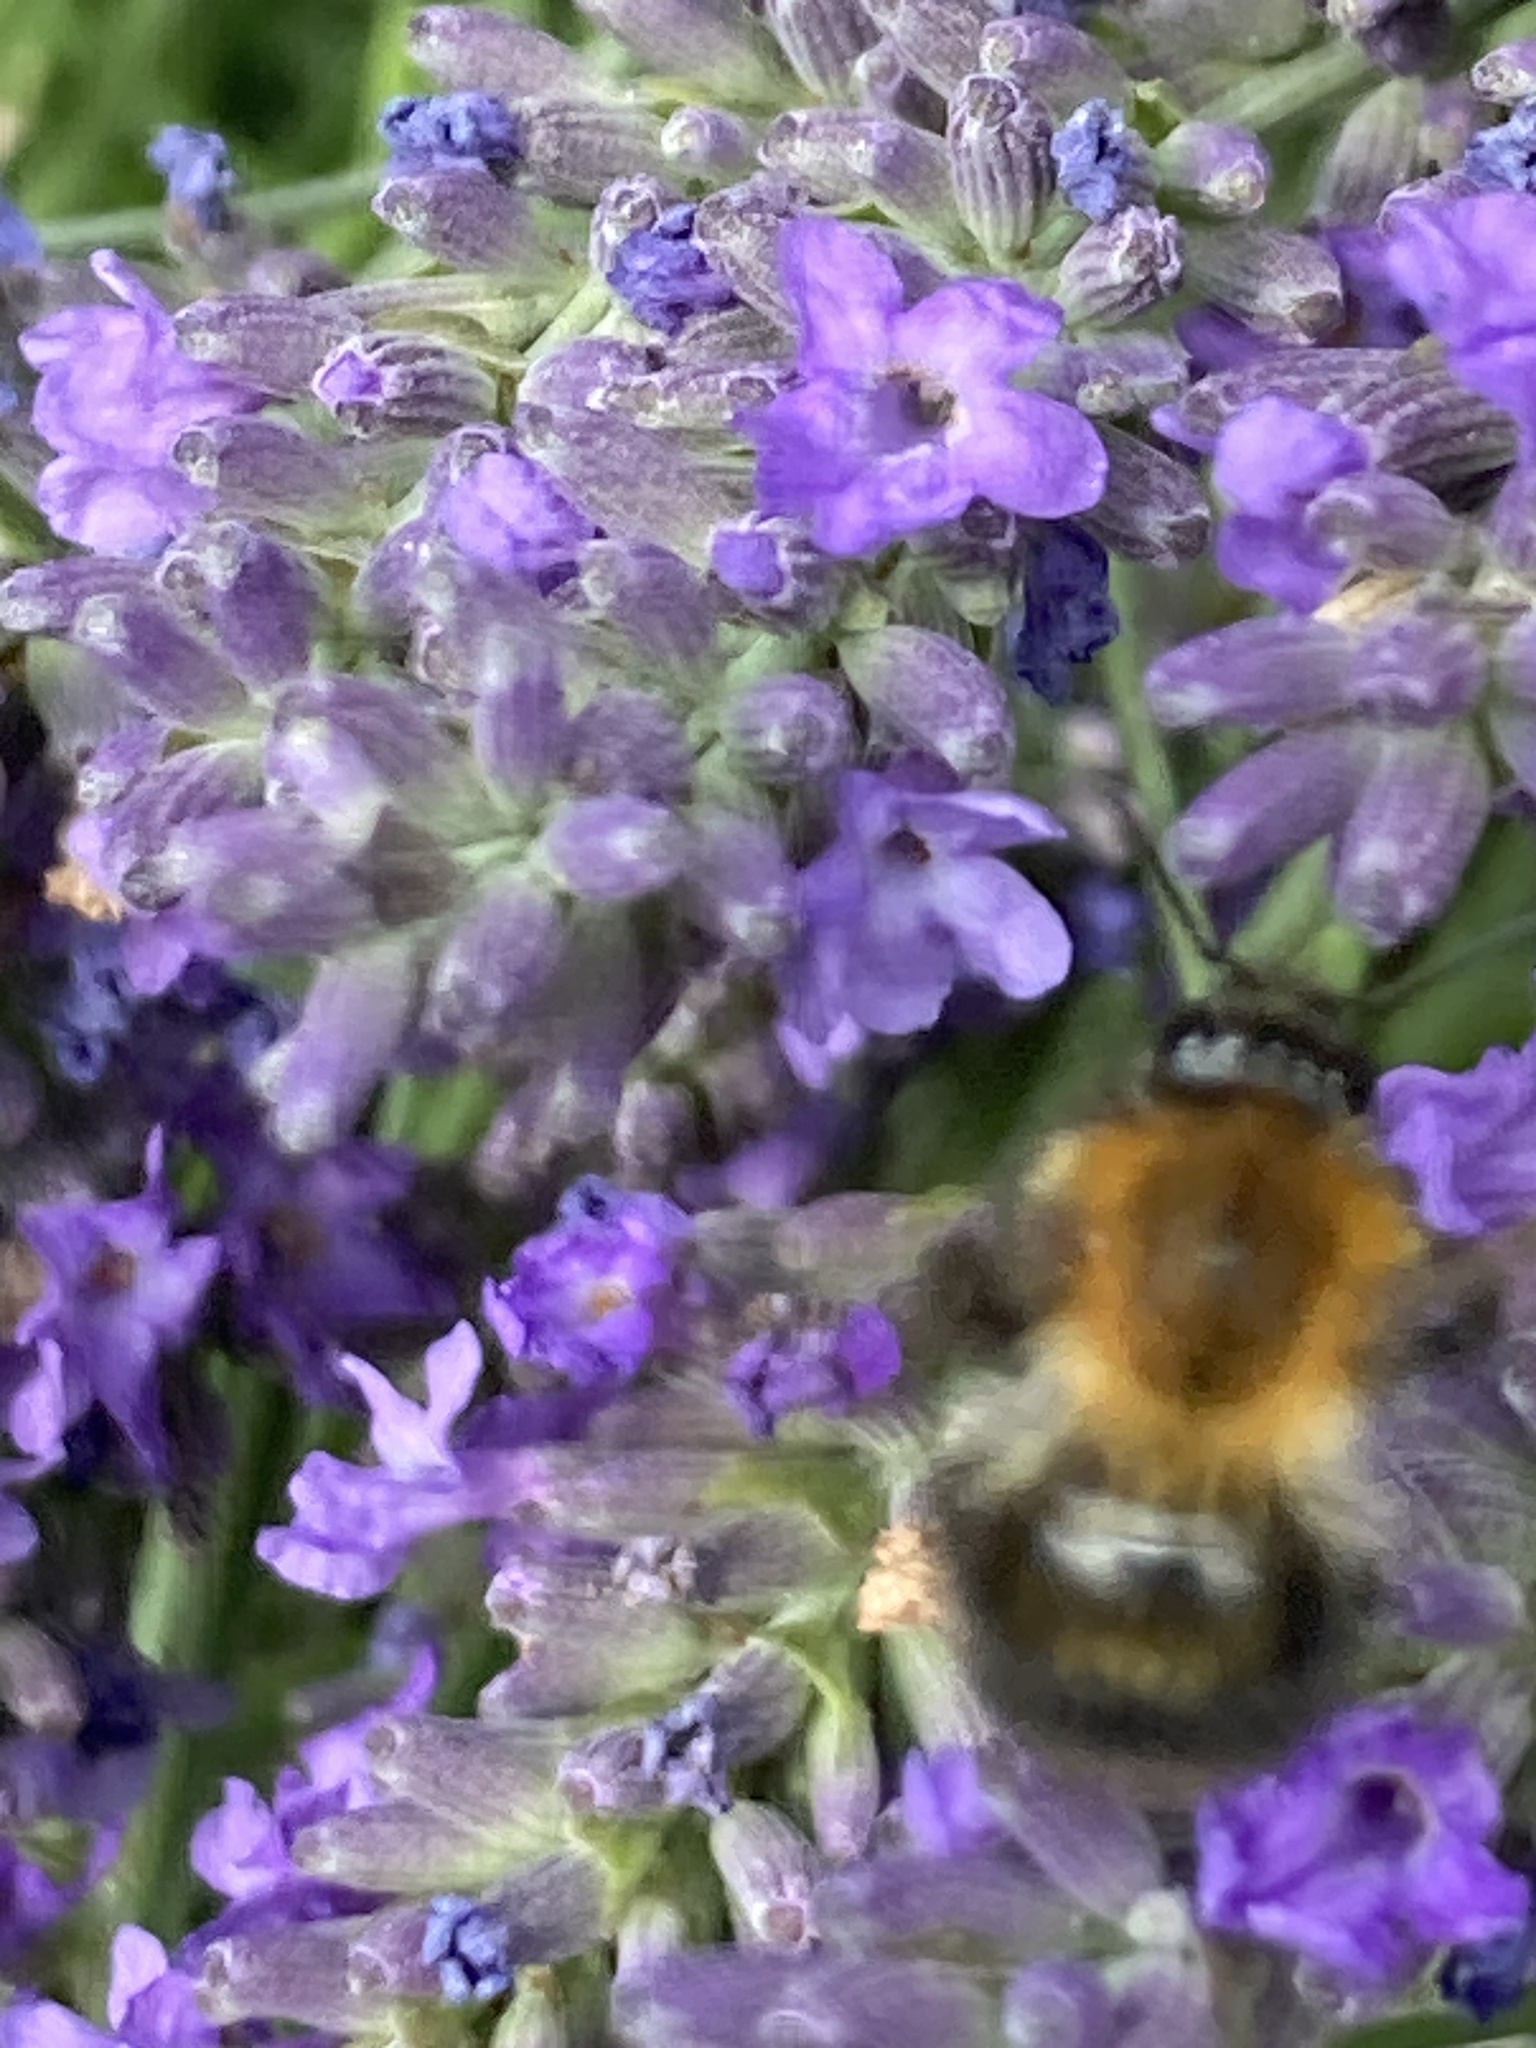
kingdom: Animalia
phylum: Arthropoda
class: Insecta
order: Hymenoptera
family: Apidae
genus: Bombus
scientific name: Bombus pascuorum
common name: Common carder bee
